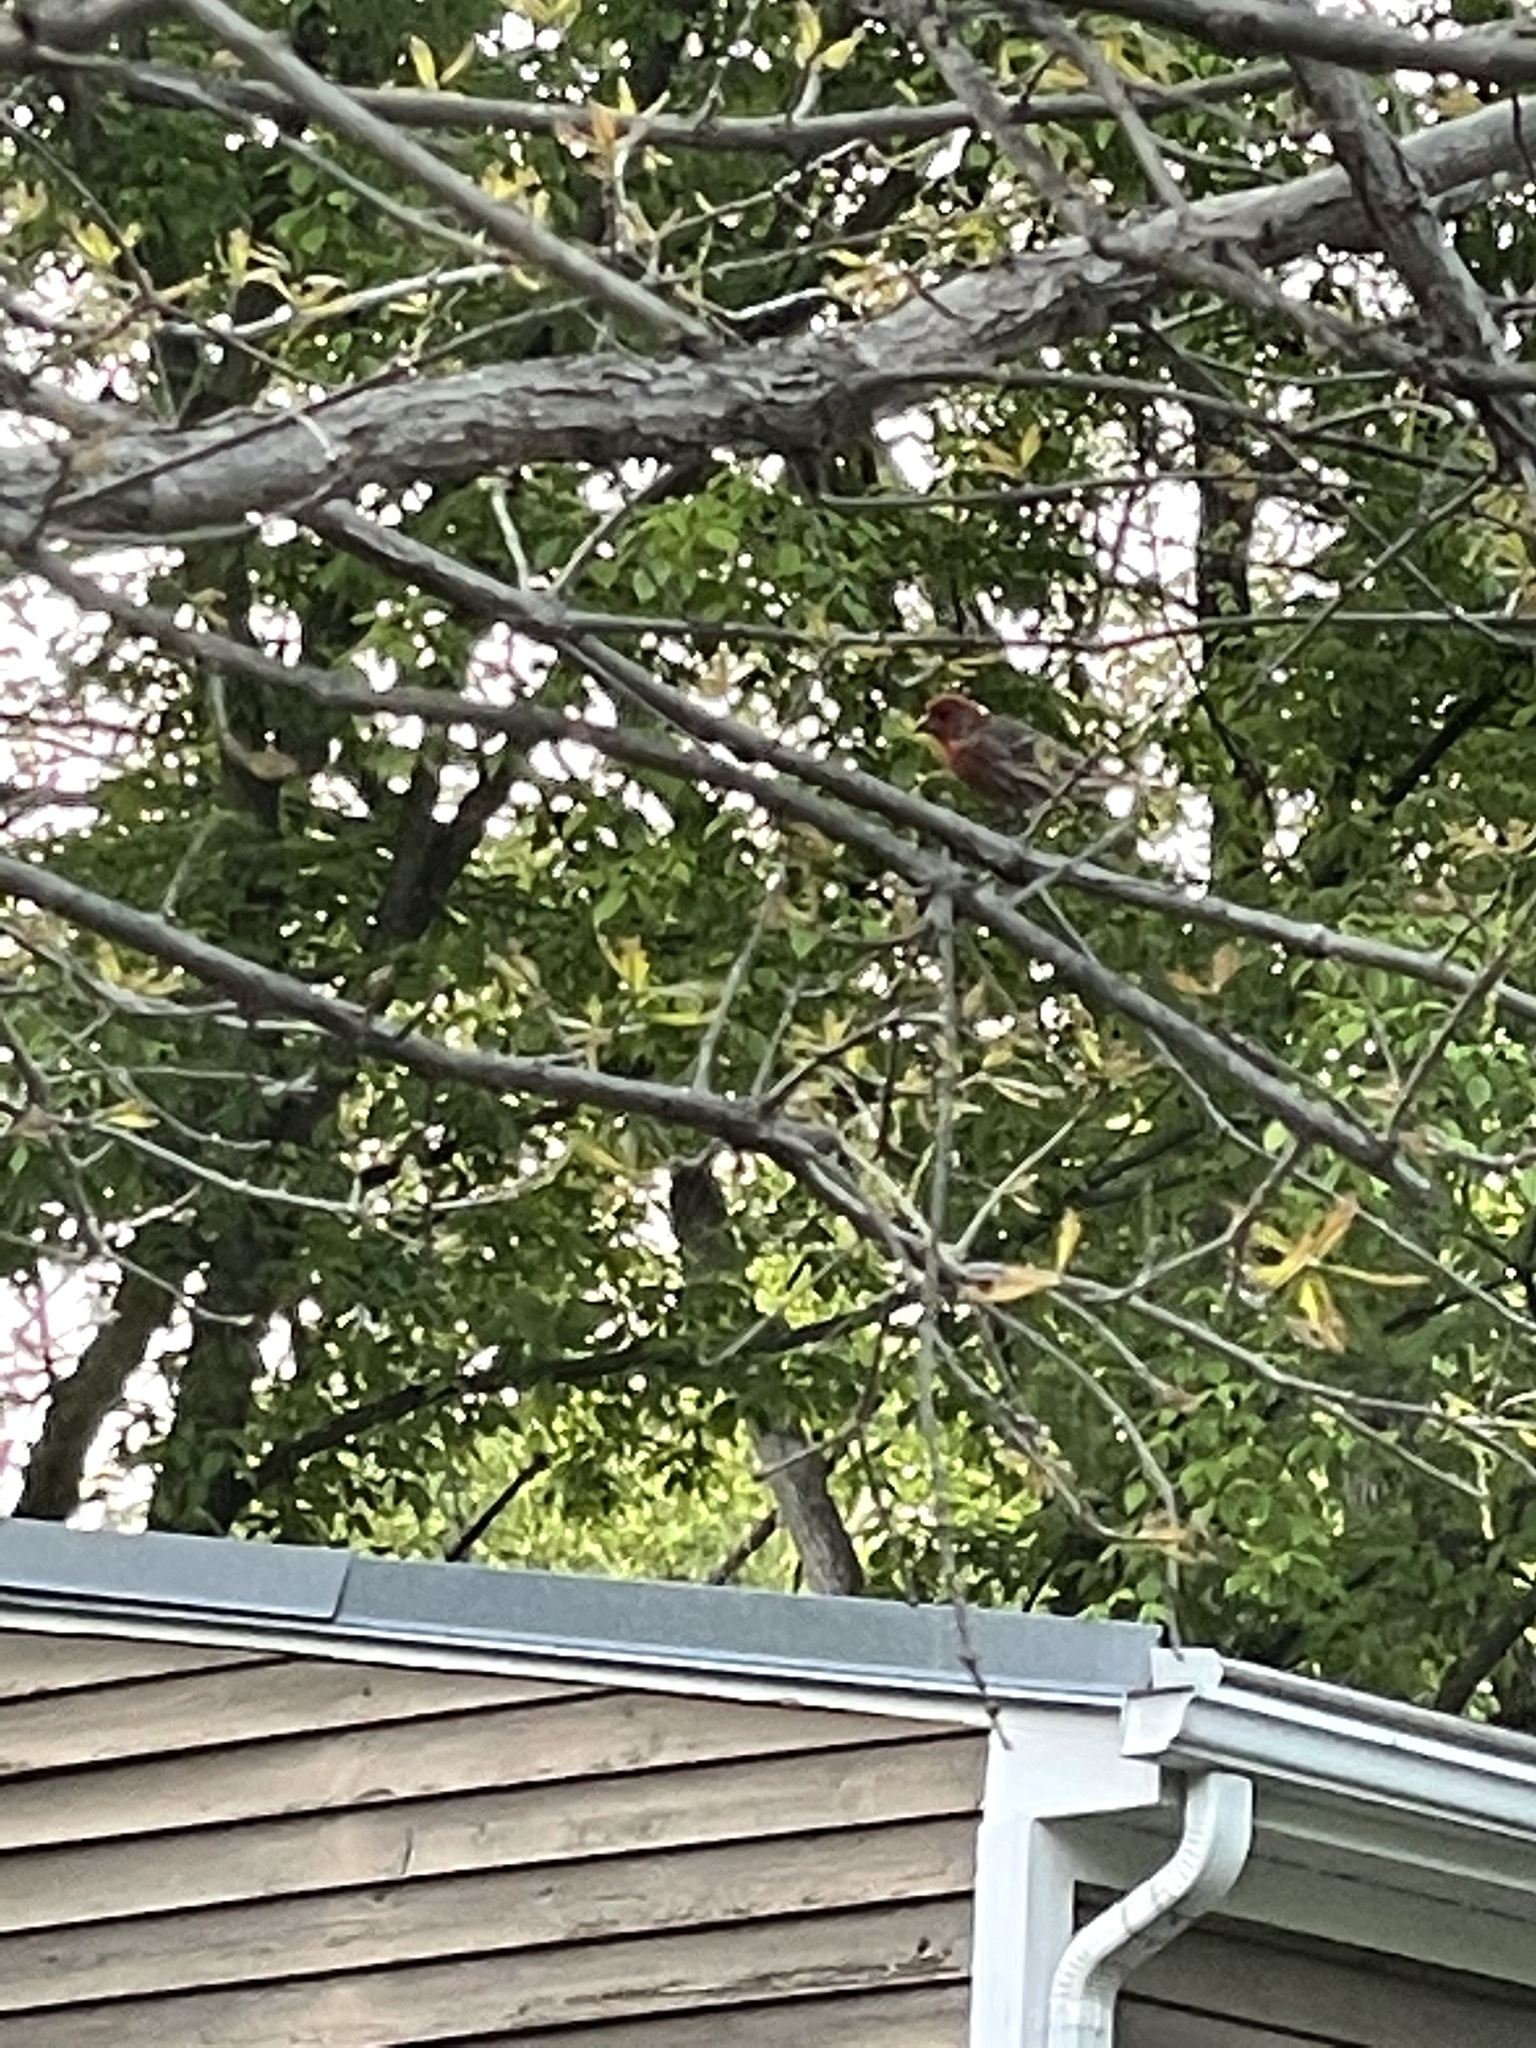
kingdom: Animalia
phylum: Chordata
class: Aves
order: Passeriformes
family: Fringillidae
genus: Haemorhous
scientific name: Haemorhous mexicanus
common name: House finch
